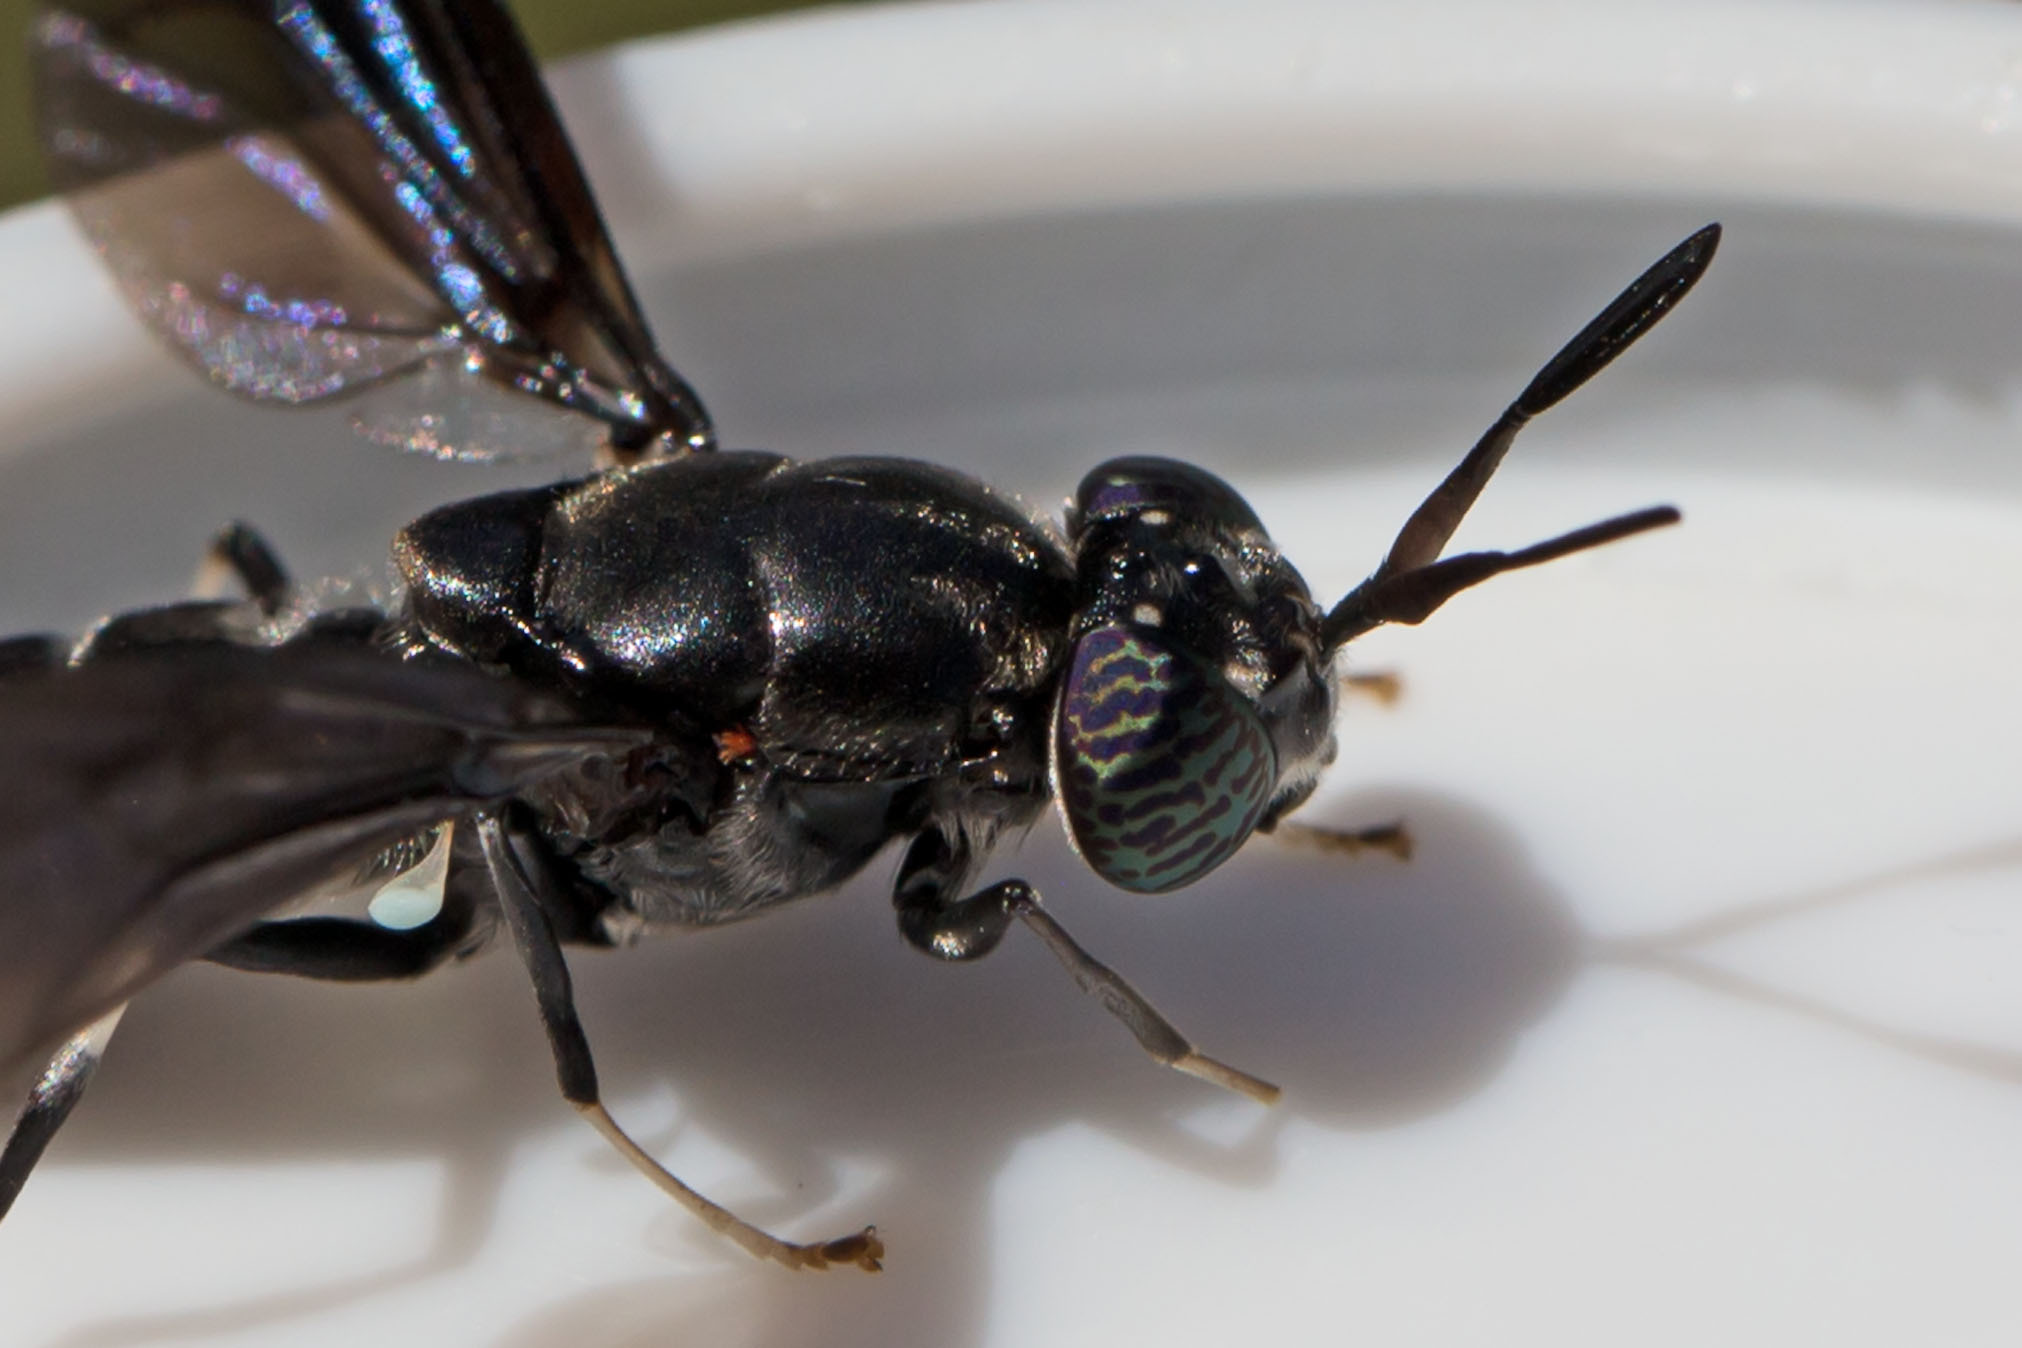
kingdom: Animalia
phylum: Arthropoda
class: Insecta
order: Diptera
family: Stratiomyidae
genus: Hermetia
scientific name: Hermetia illucens
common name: Black soldier fly
